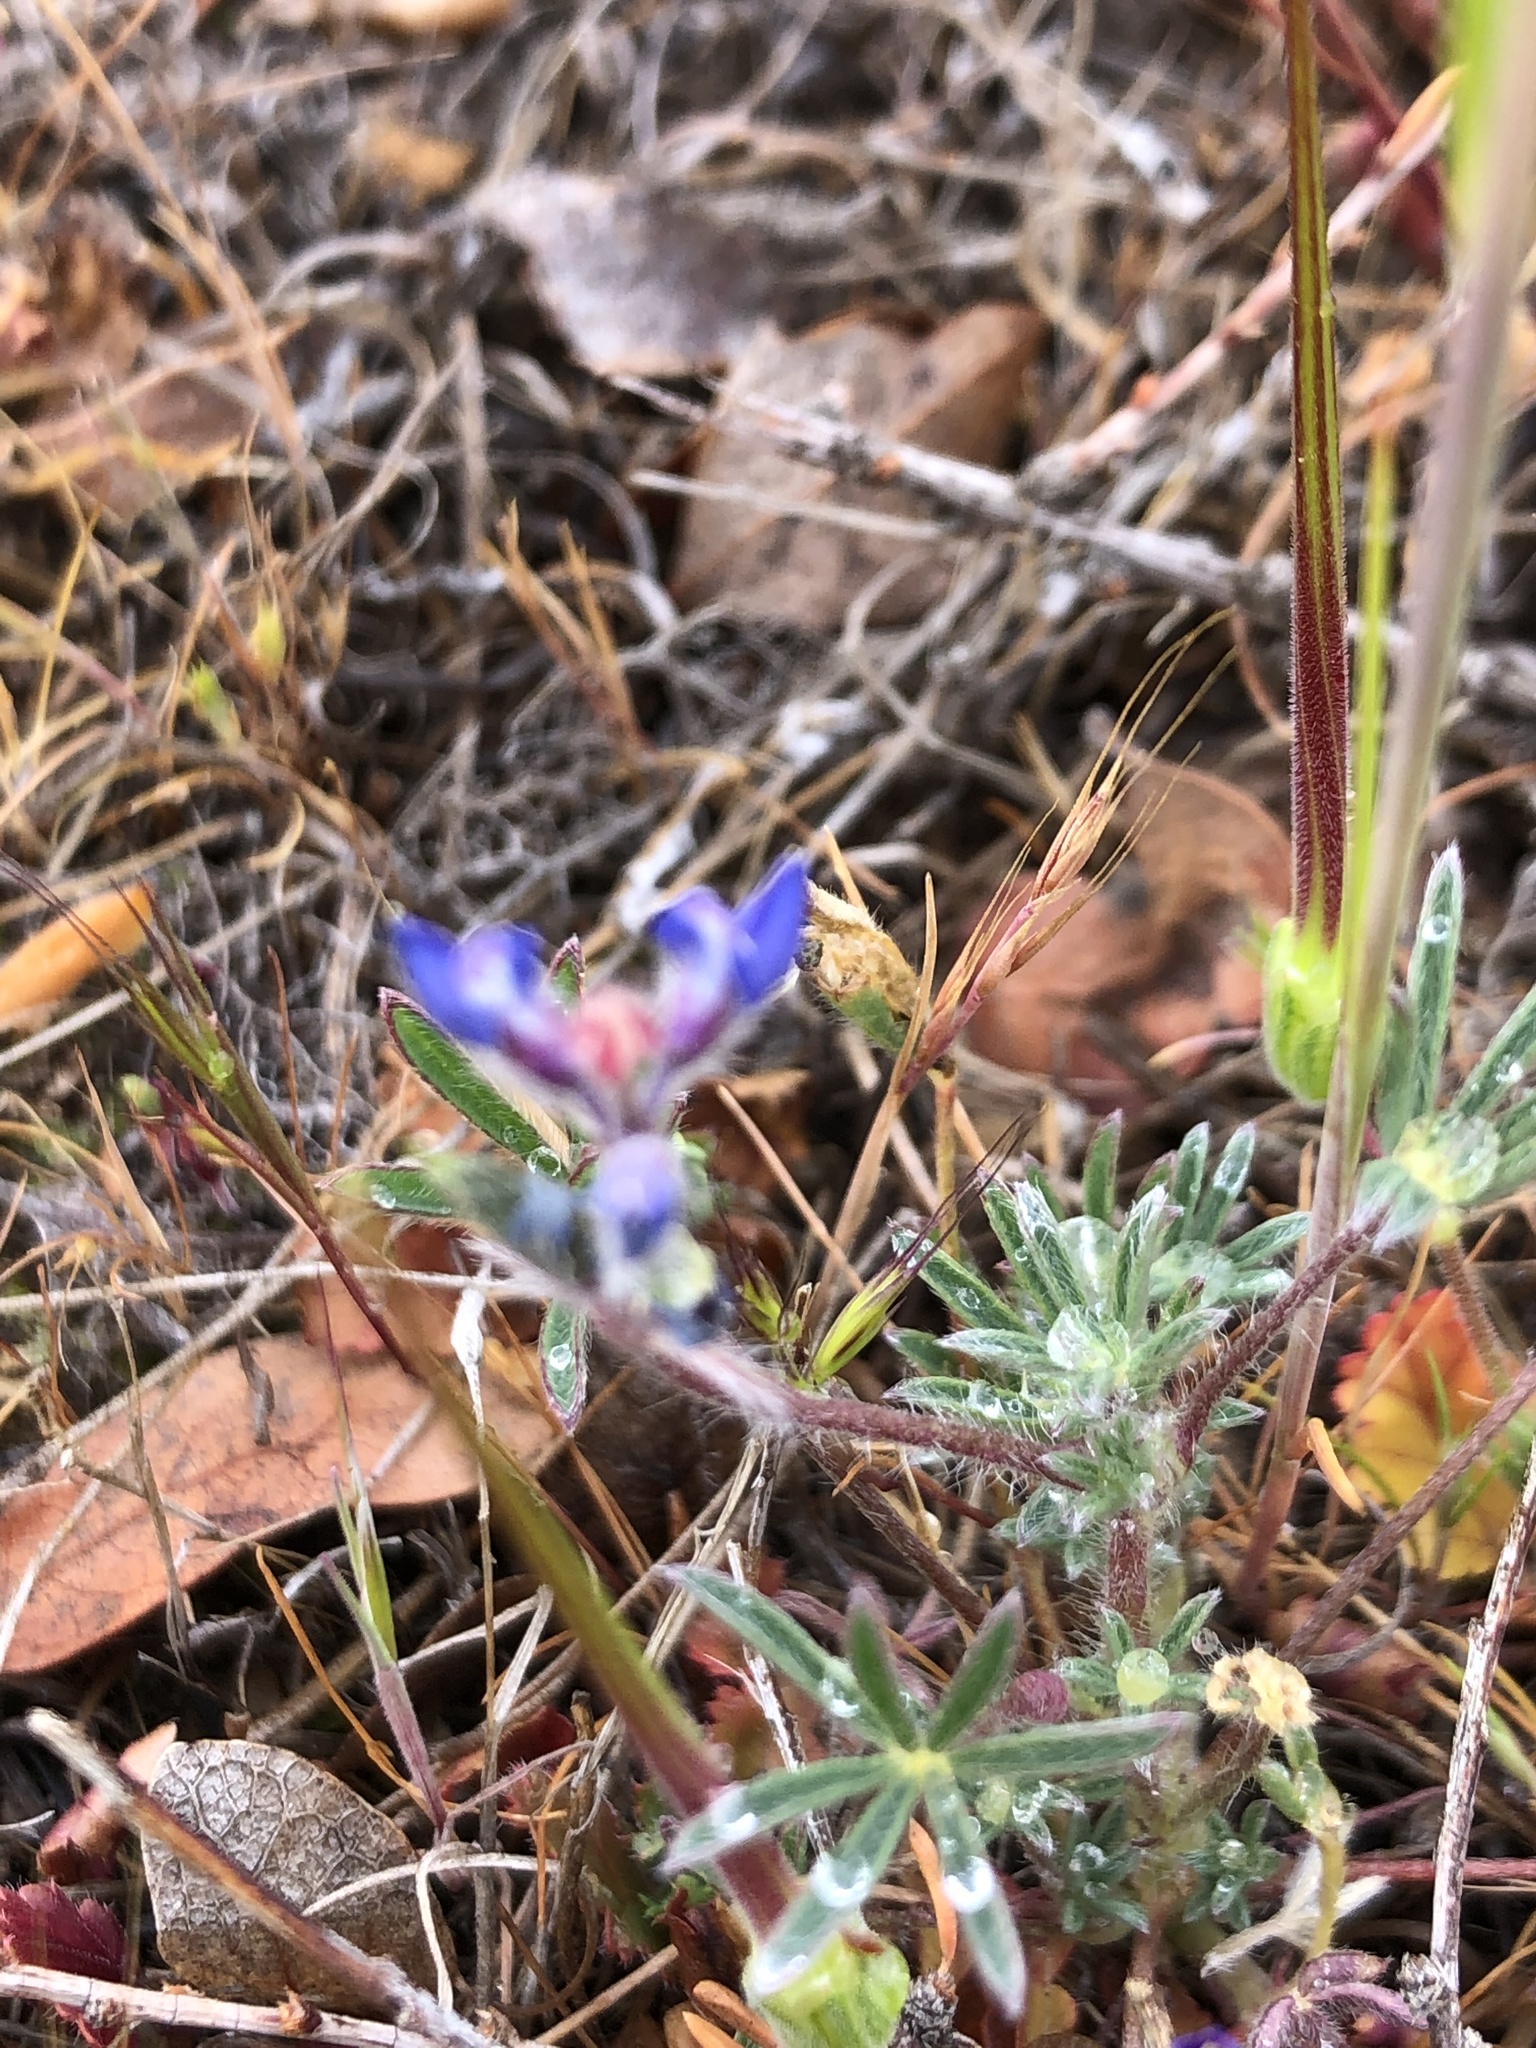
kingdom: Plantae
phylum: Tracheophyta
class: Magnoliopsida
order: Fabales
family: Fabaceae
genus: Lupinus
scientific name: Lupinus bicolor
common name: Miniature lupine
